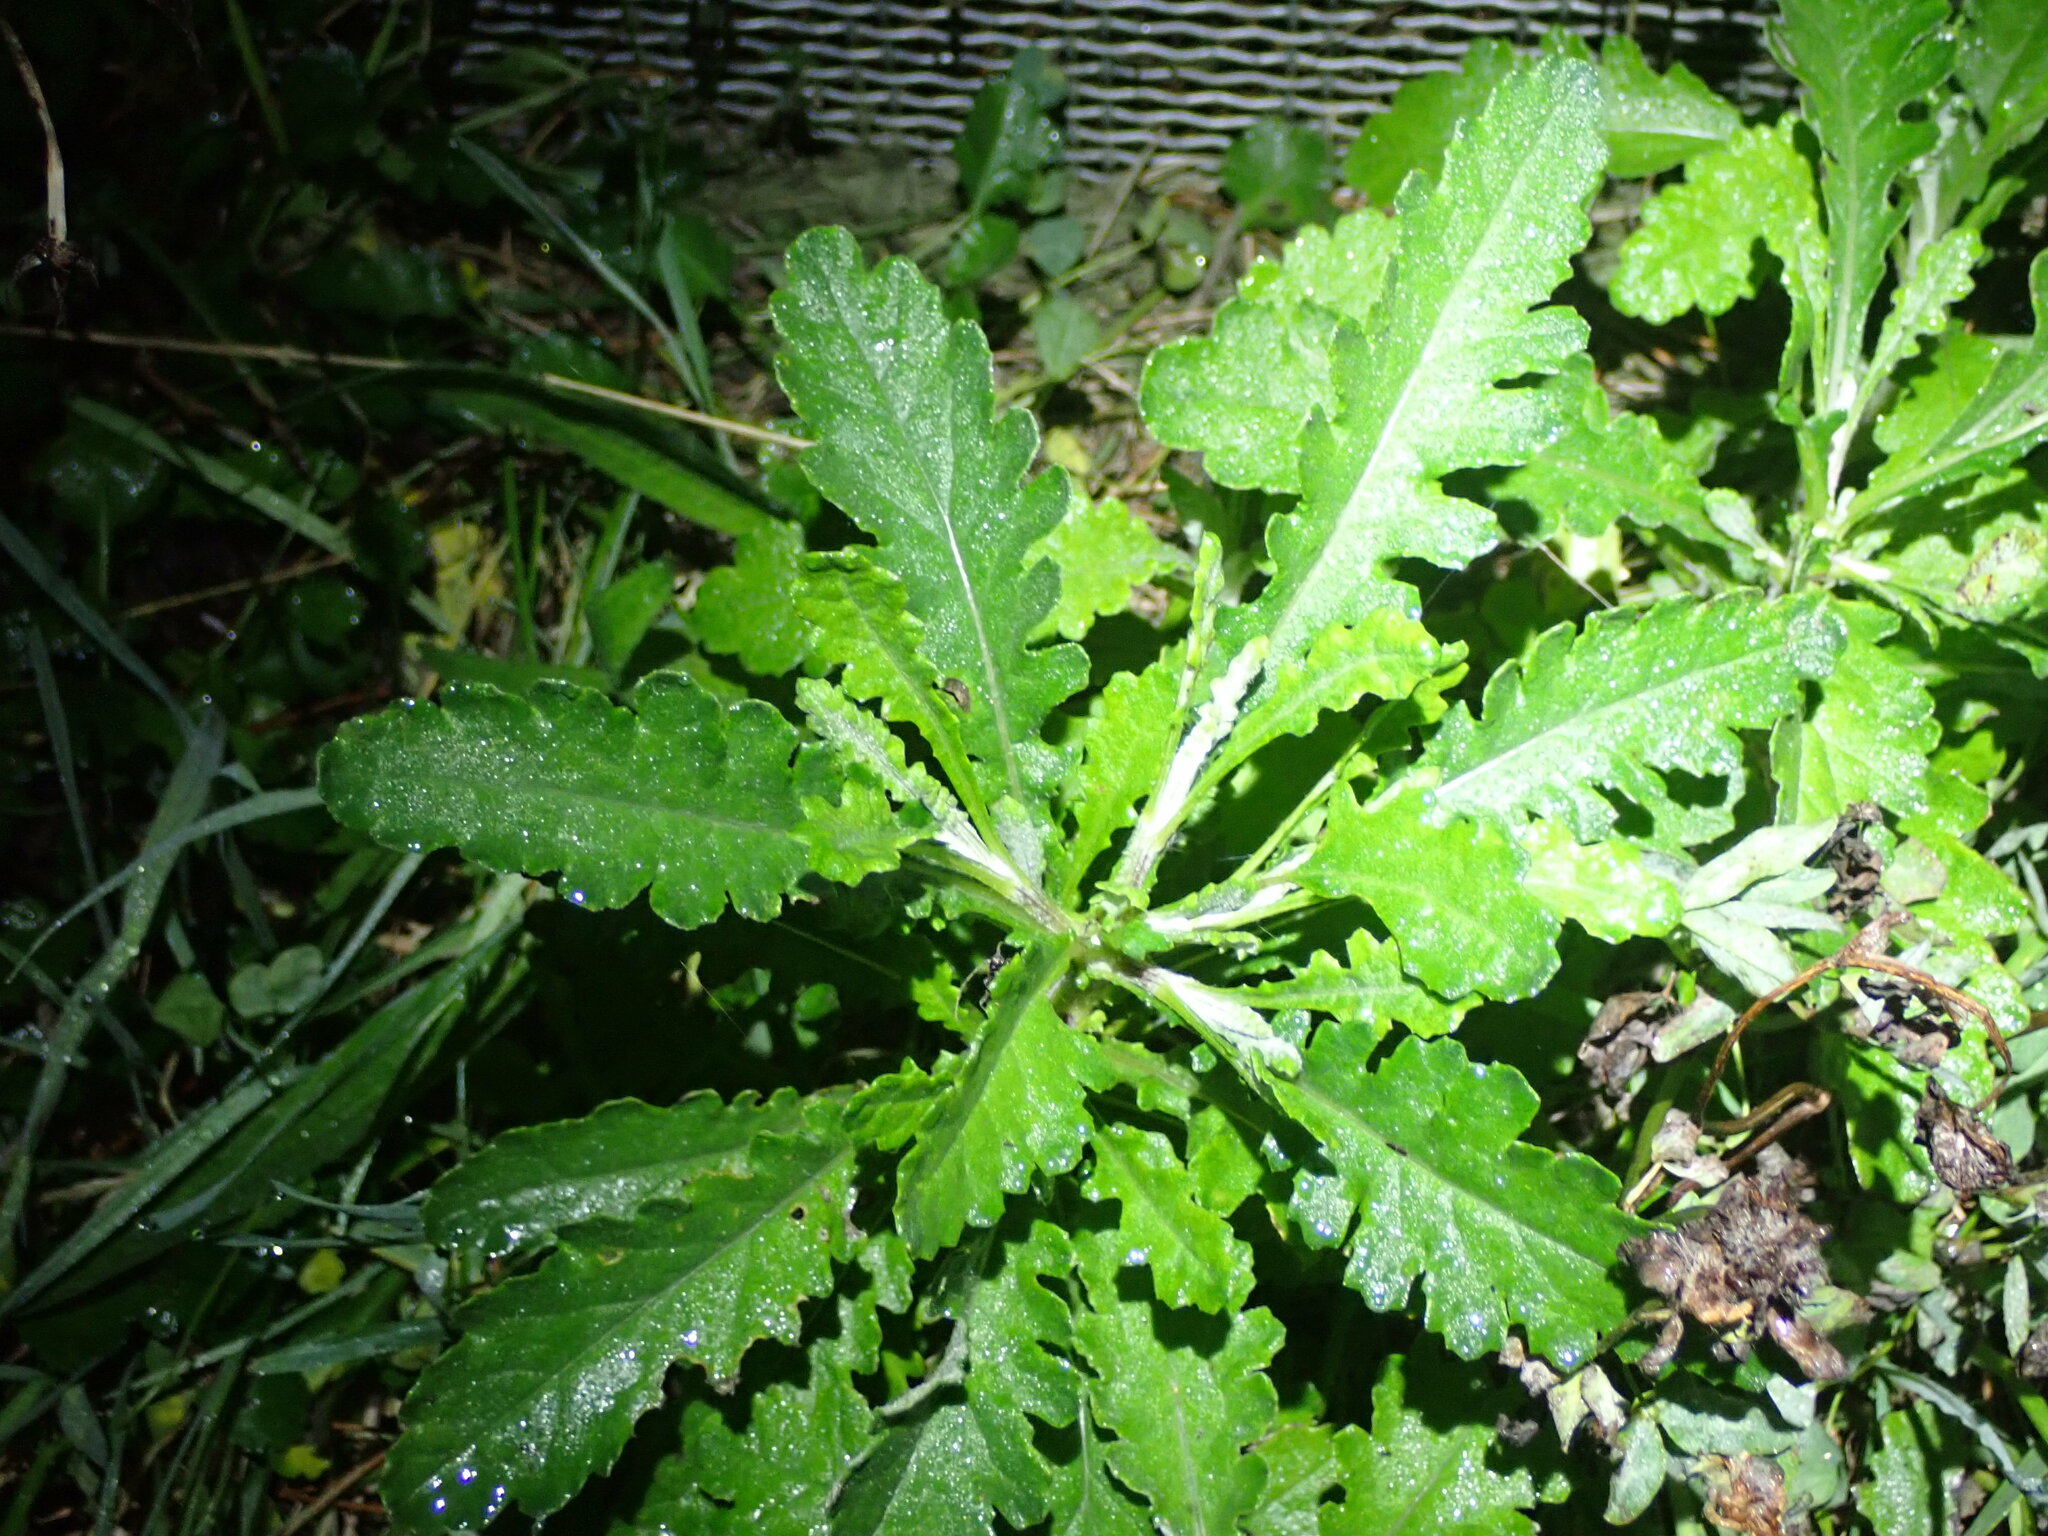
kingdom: Plantae
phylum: Tracheophyta
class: Magnoliopsida
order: Asterales
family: Asteraceae
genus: Senecio
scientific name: Senecio glomeratus
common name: Cutleaf burnweed
